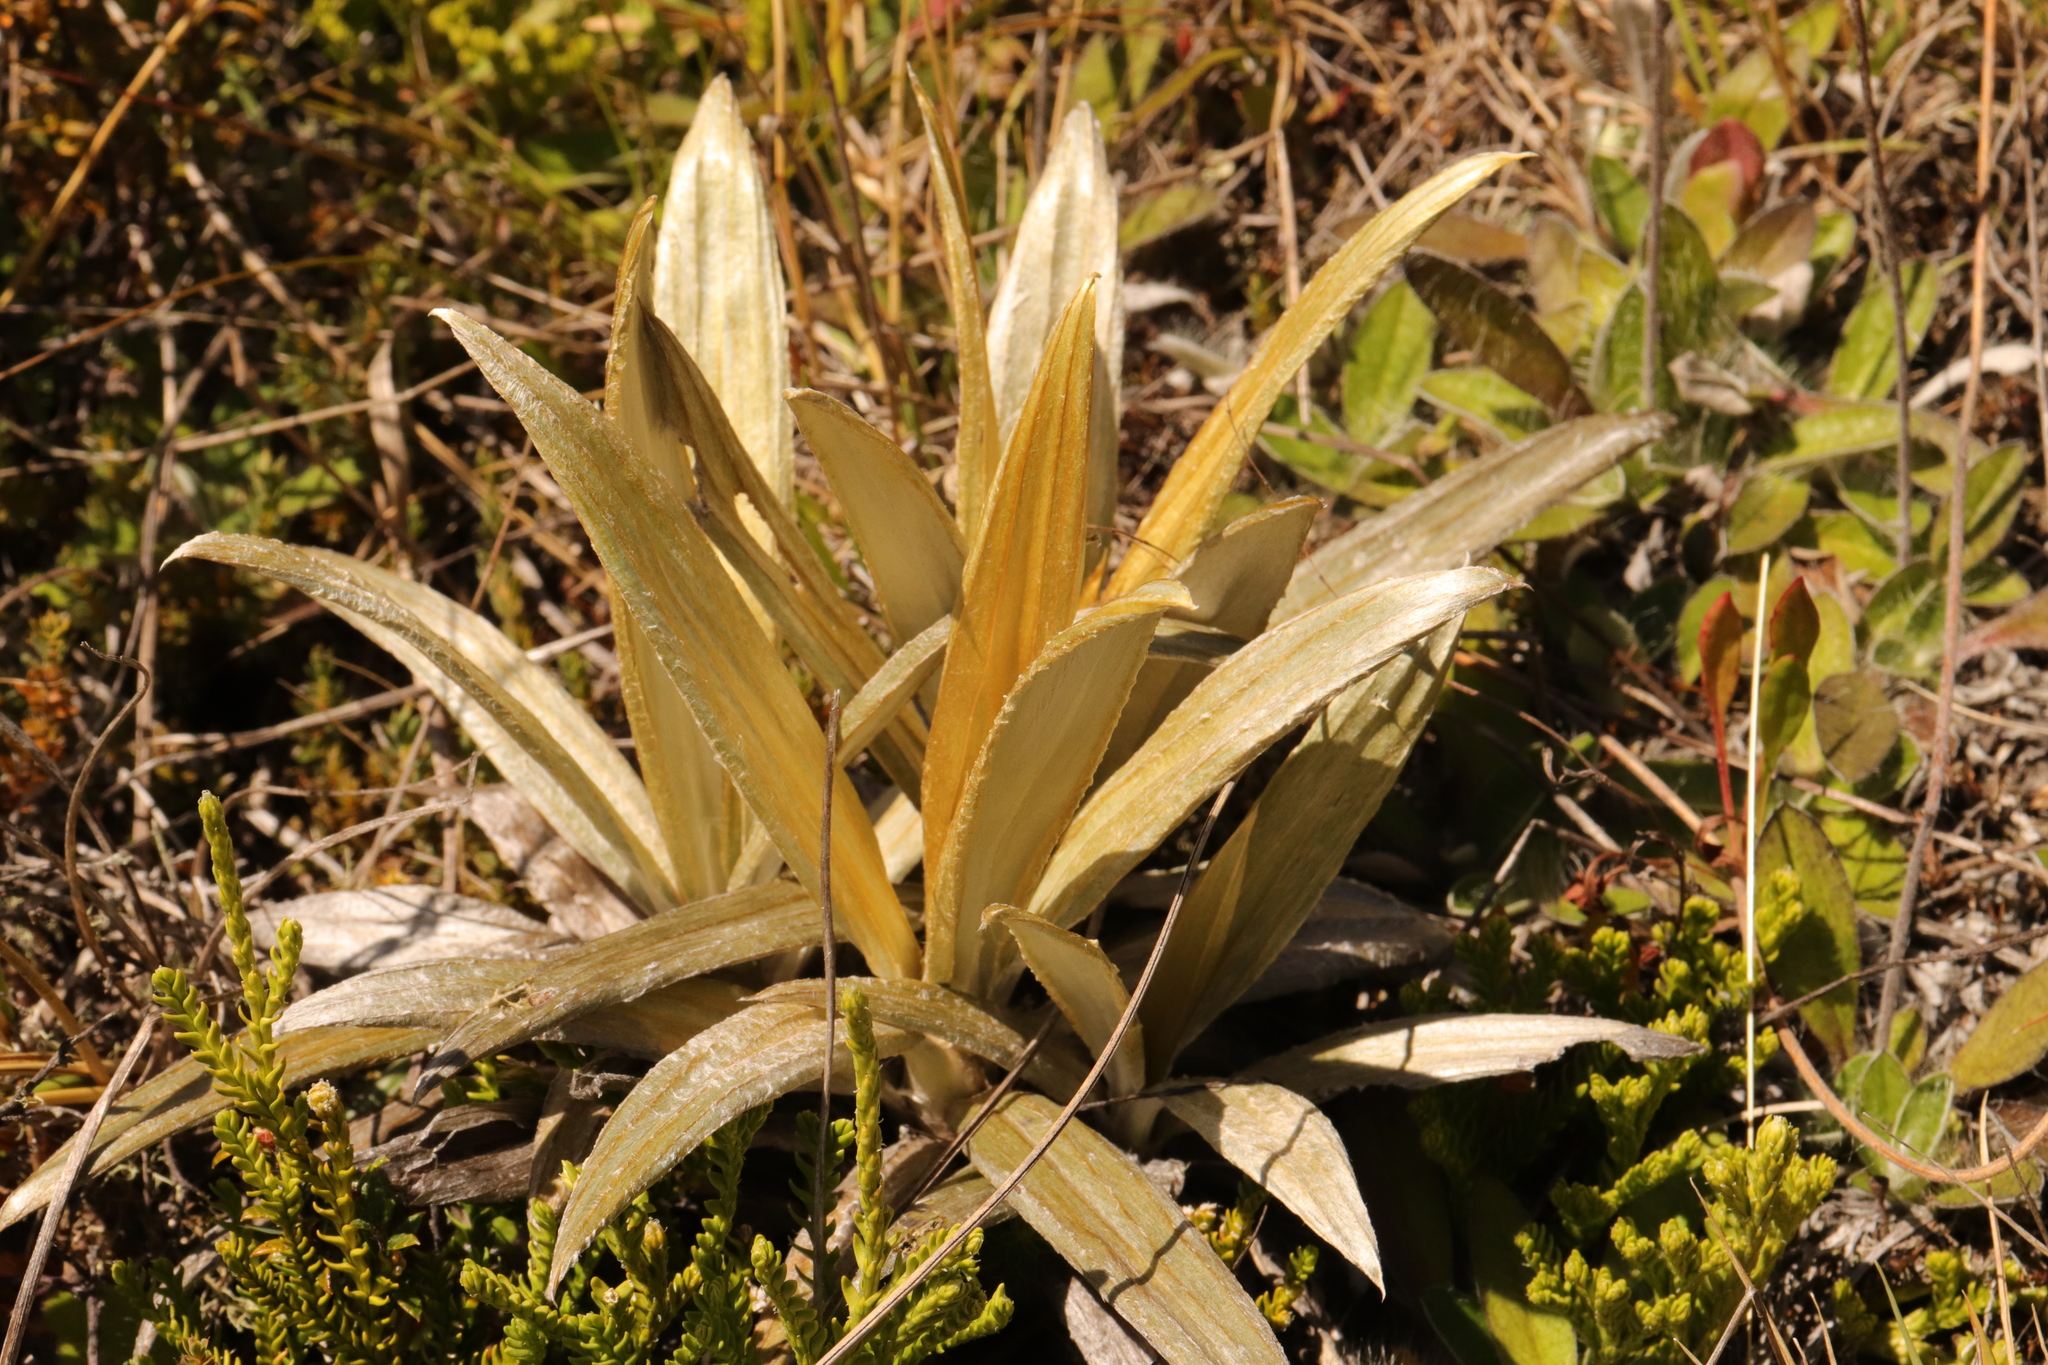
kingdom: Plantae
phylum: Tracheophyta
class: Magnoliopsida
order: Asterales
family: Asteraceae
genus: Celmisia
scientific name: Celmisia semicordata
